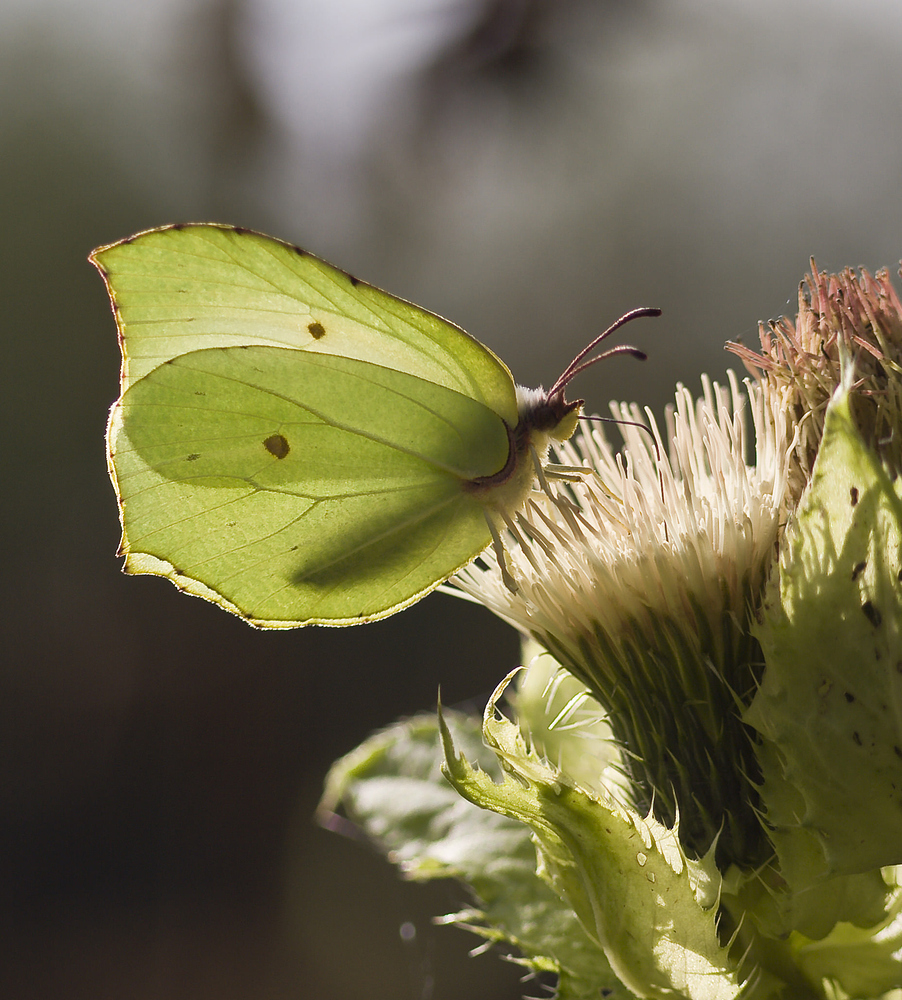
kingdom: Animalia
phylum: Arthropoda
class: Insecta
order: Lepidoptera
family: Pieridae
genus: Gonepteryx
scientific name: Gonepteryx rhamni
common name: Brimstone
